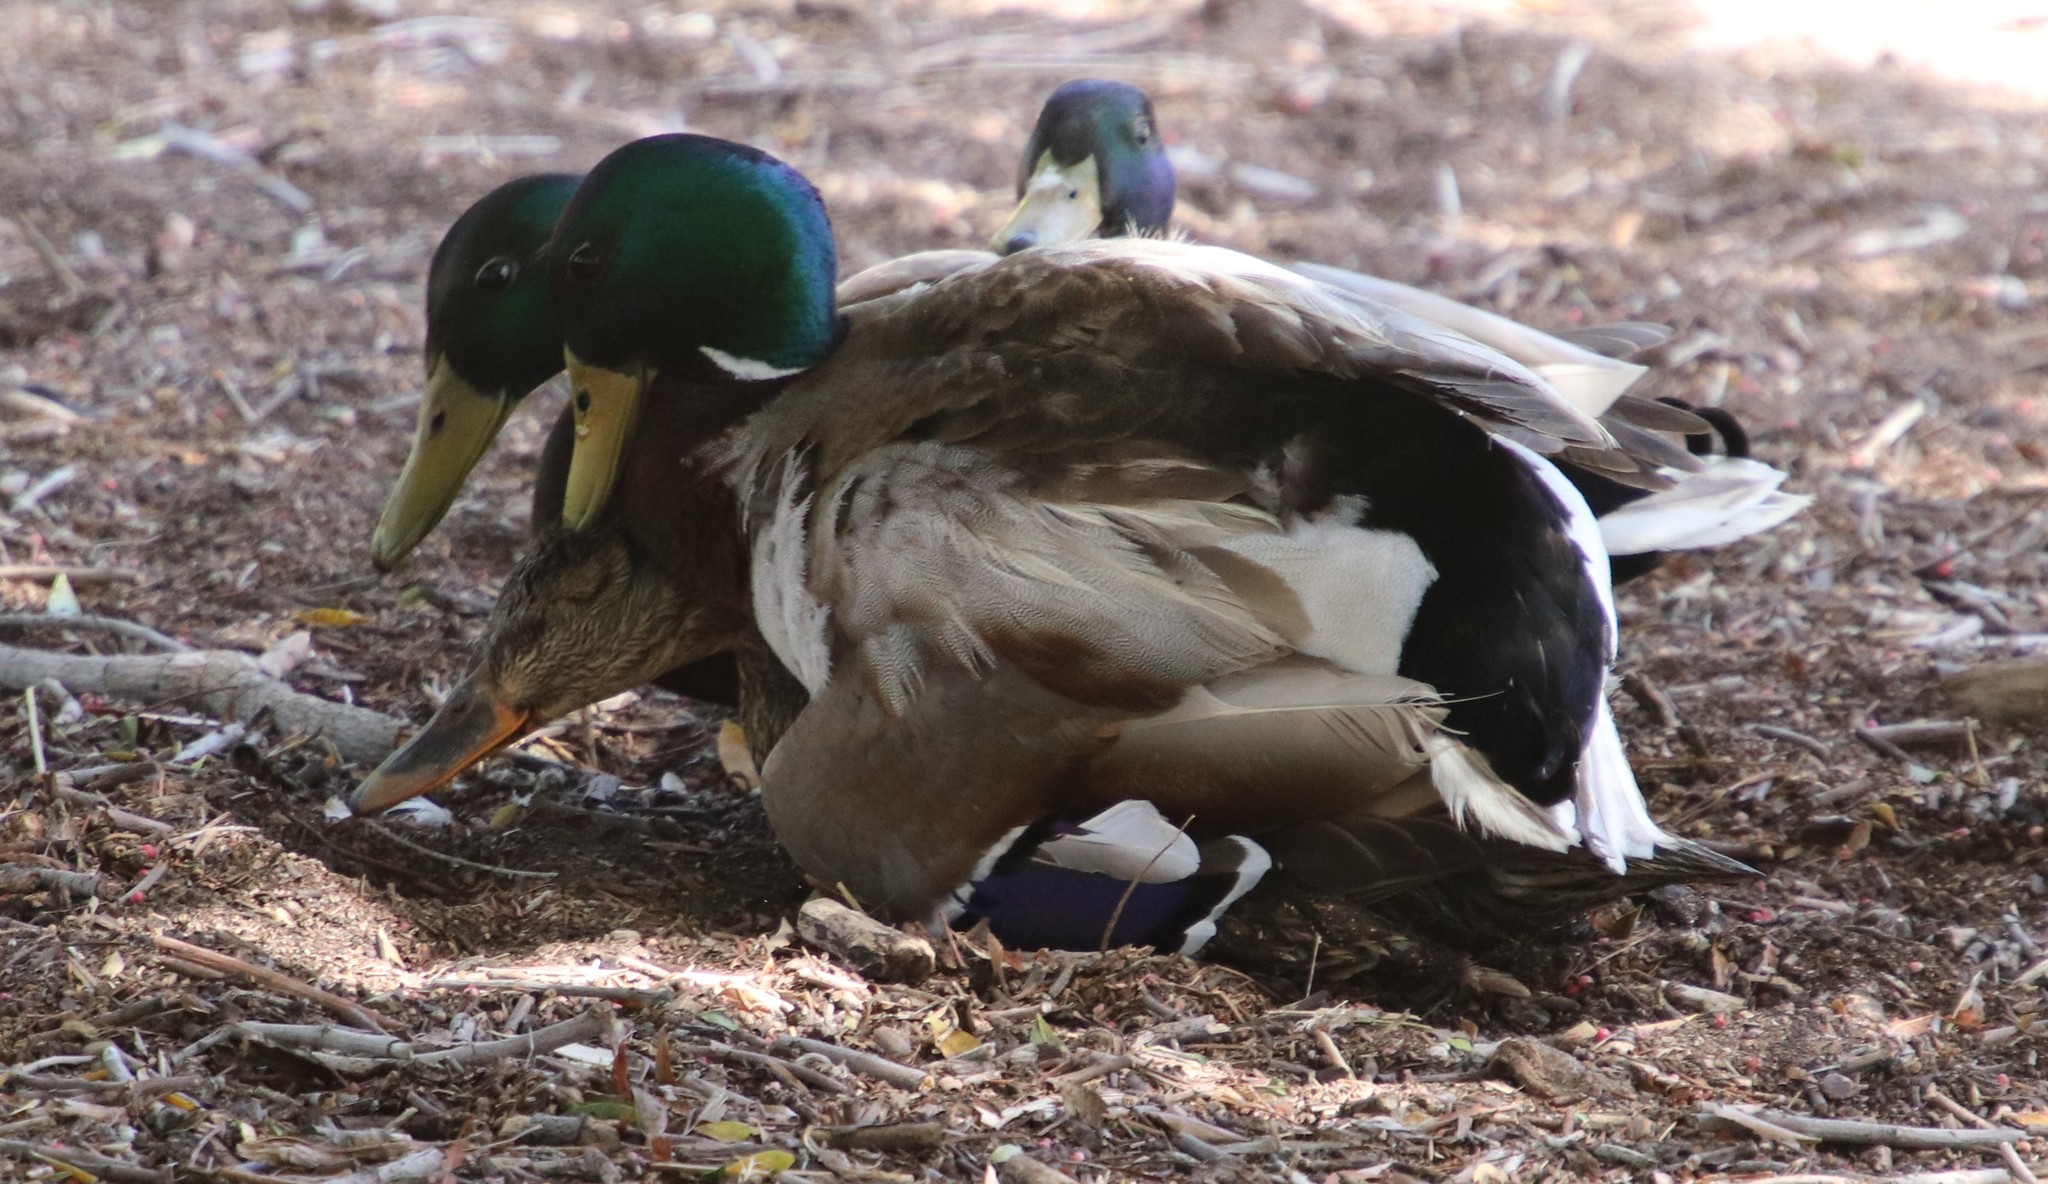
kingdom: Animalia
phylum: Chordata
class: Aves
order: Anseriformes
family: Anatidae
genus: Anas
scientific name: Anas platyrhynchos
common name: Mallard
